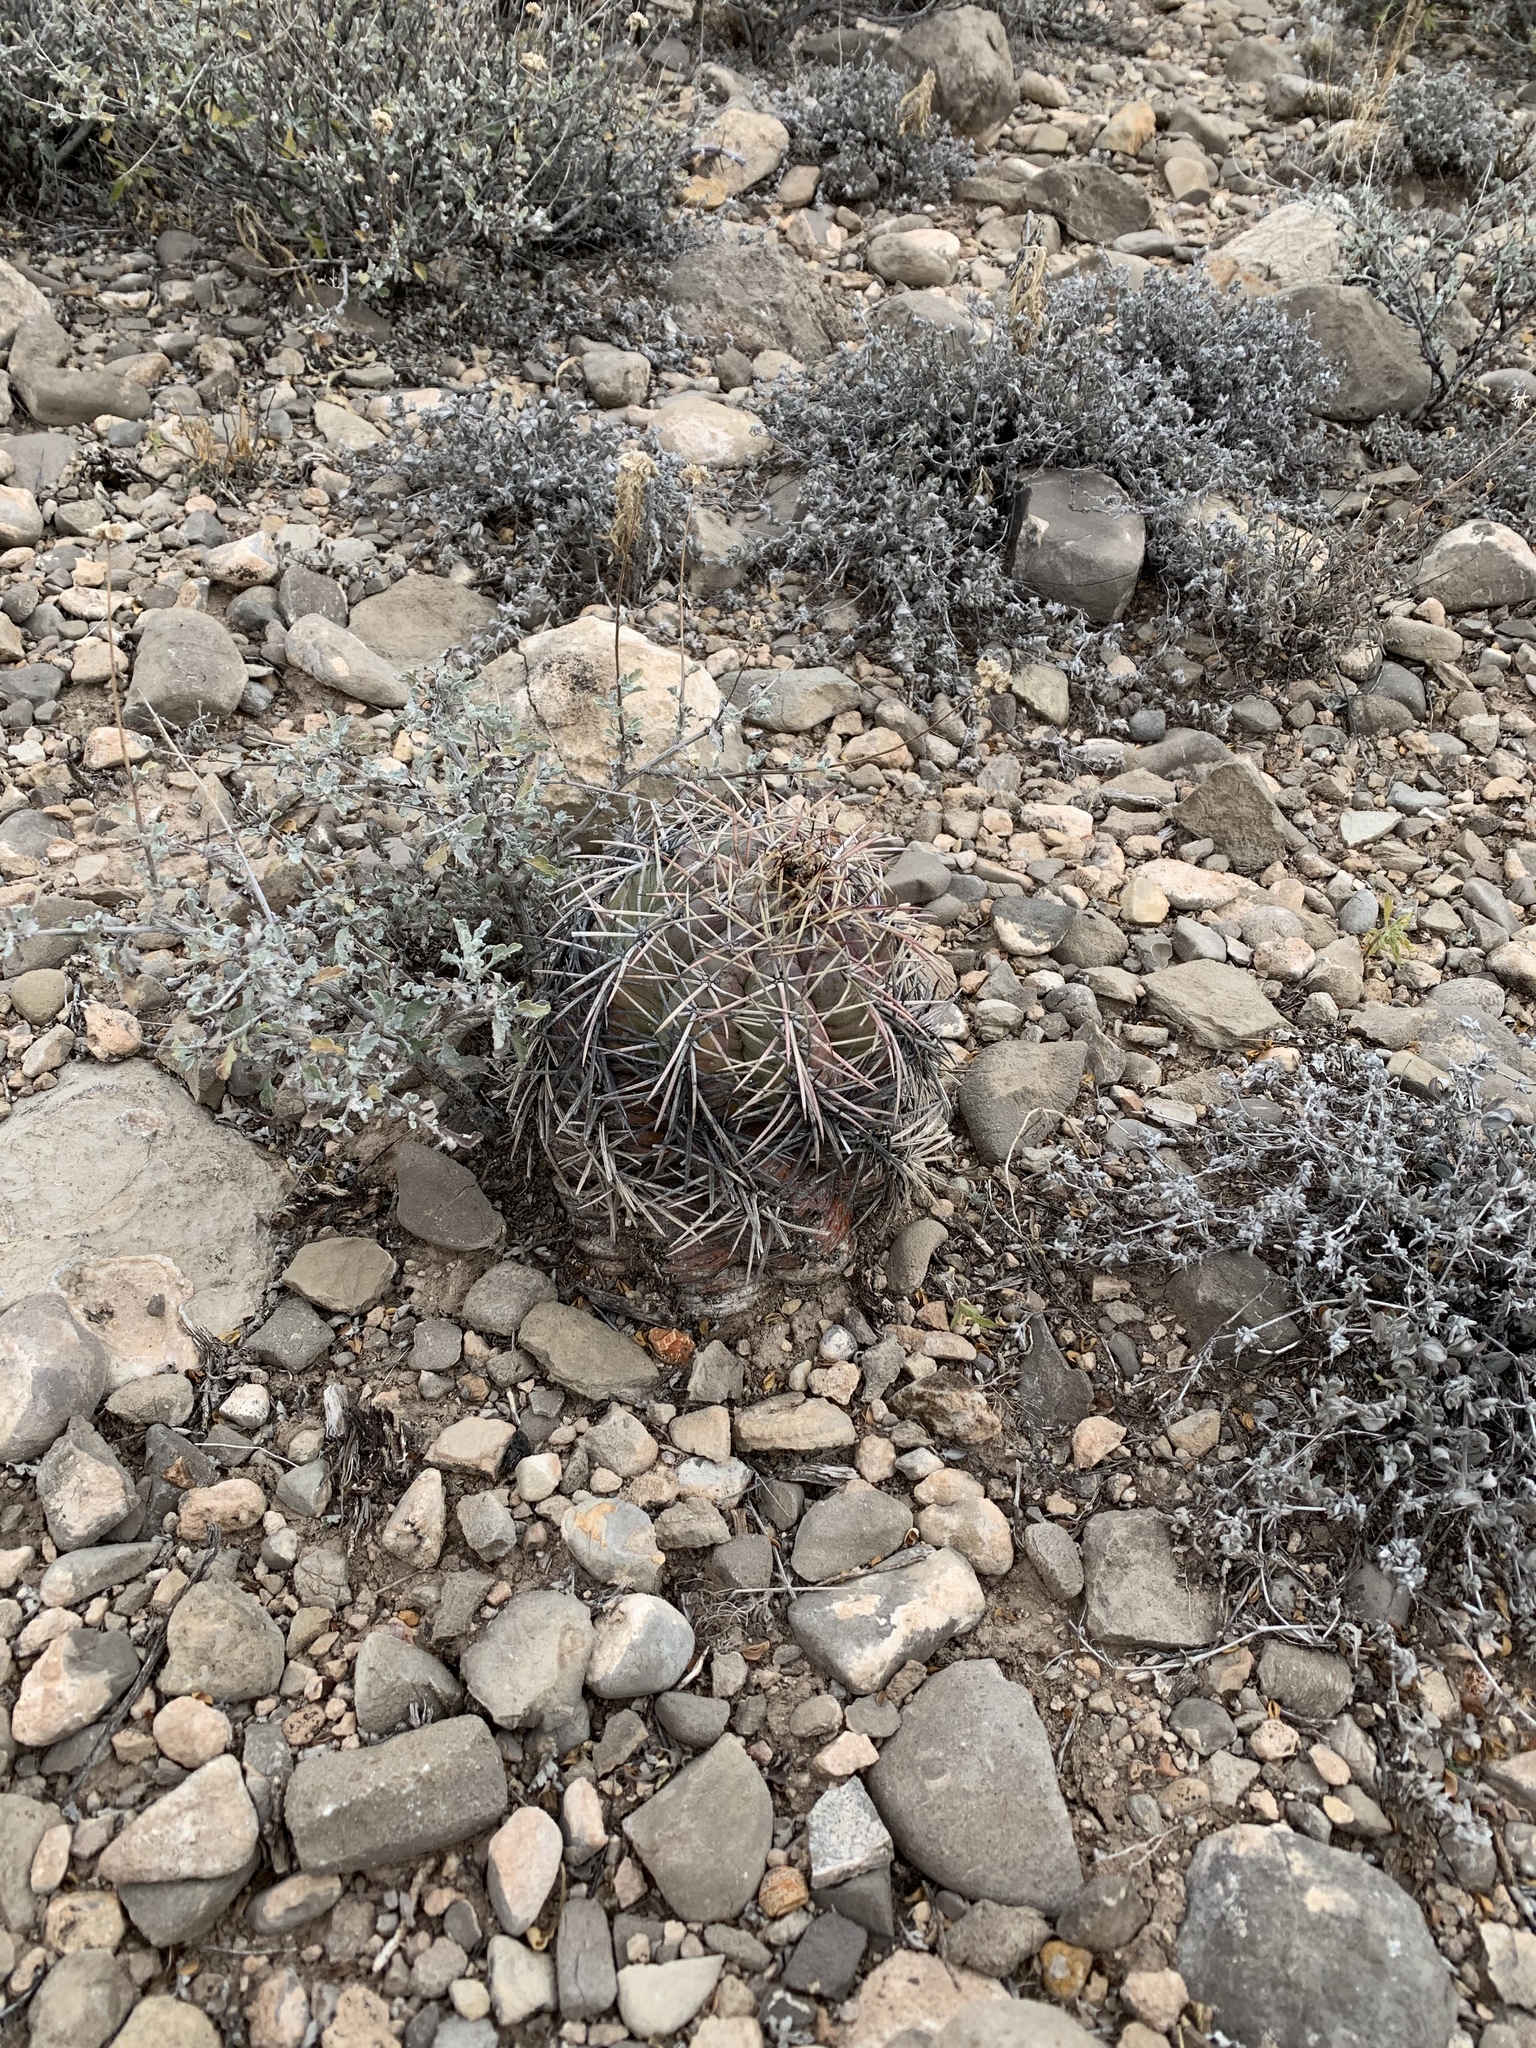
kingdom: Plantae
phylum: Tracheophyta
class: Magnoliopsida
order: Caryophyllales
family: Cactaceae
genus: Echinocactus
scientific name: Echinocactus horizonthalonius
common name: Devilshead
